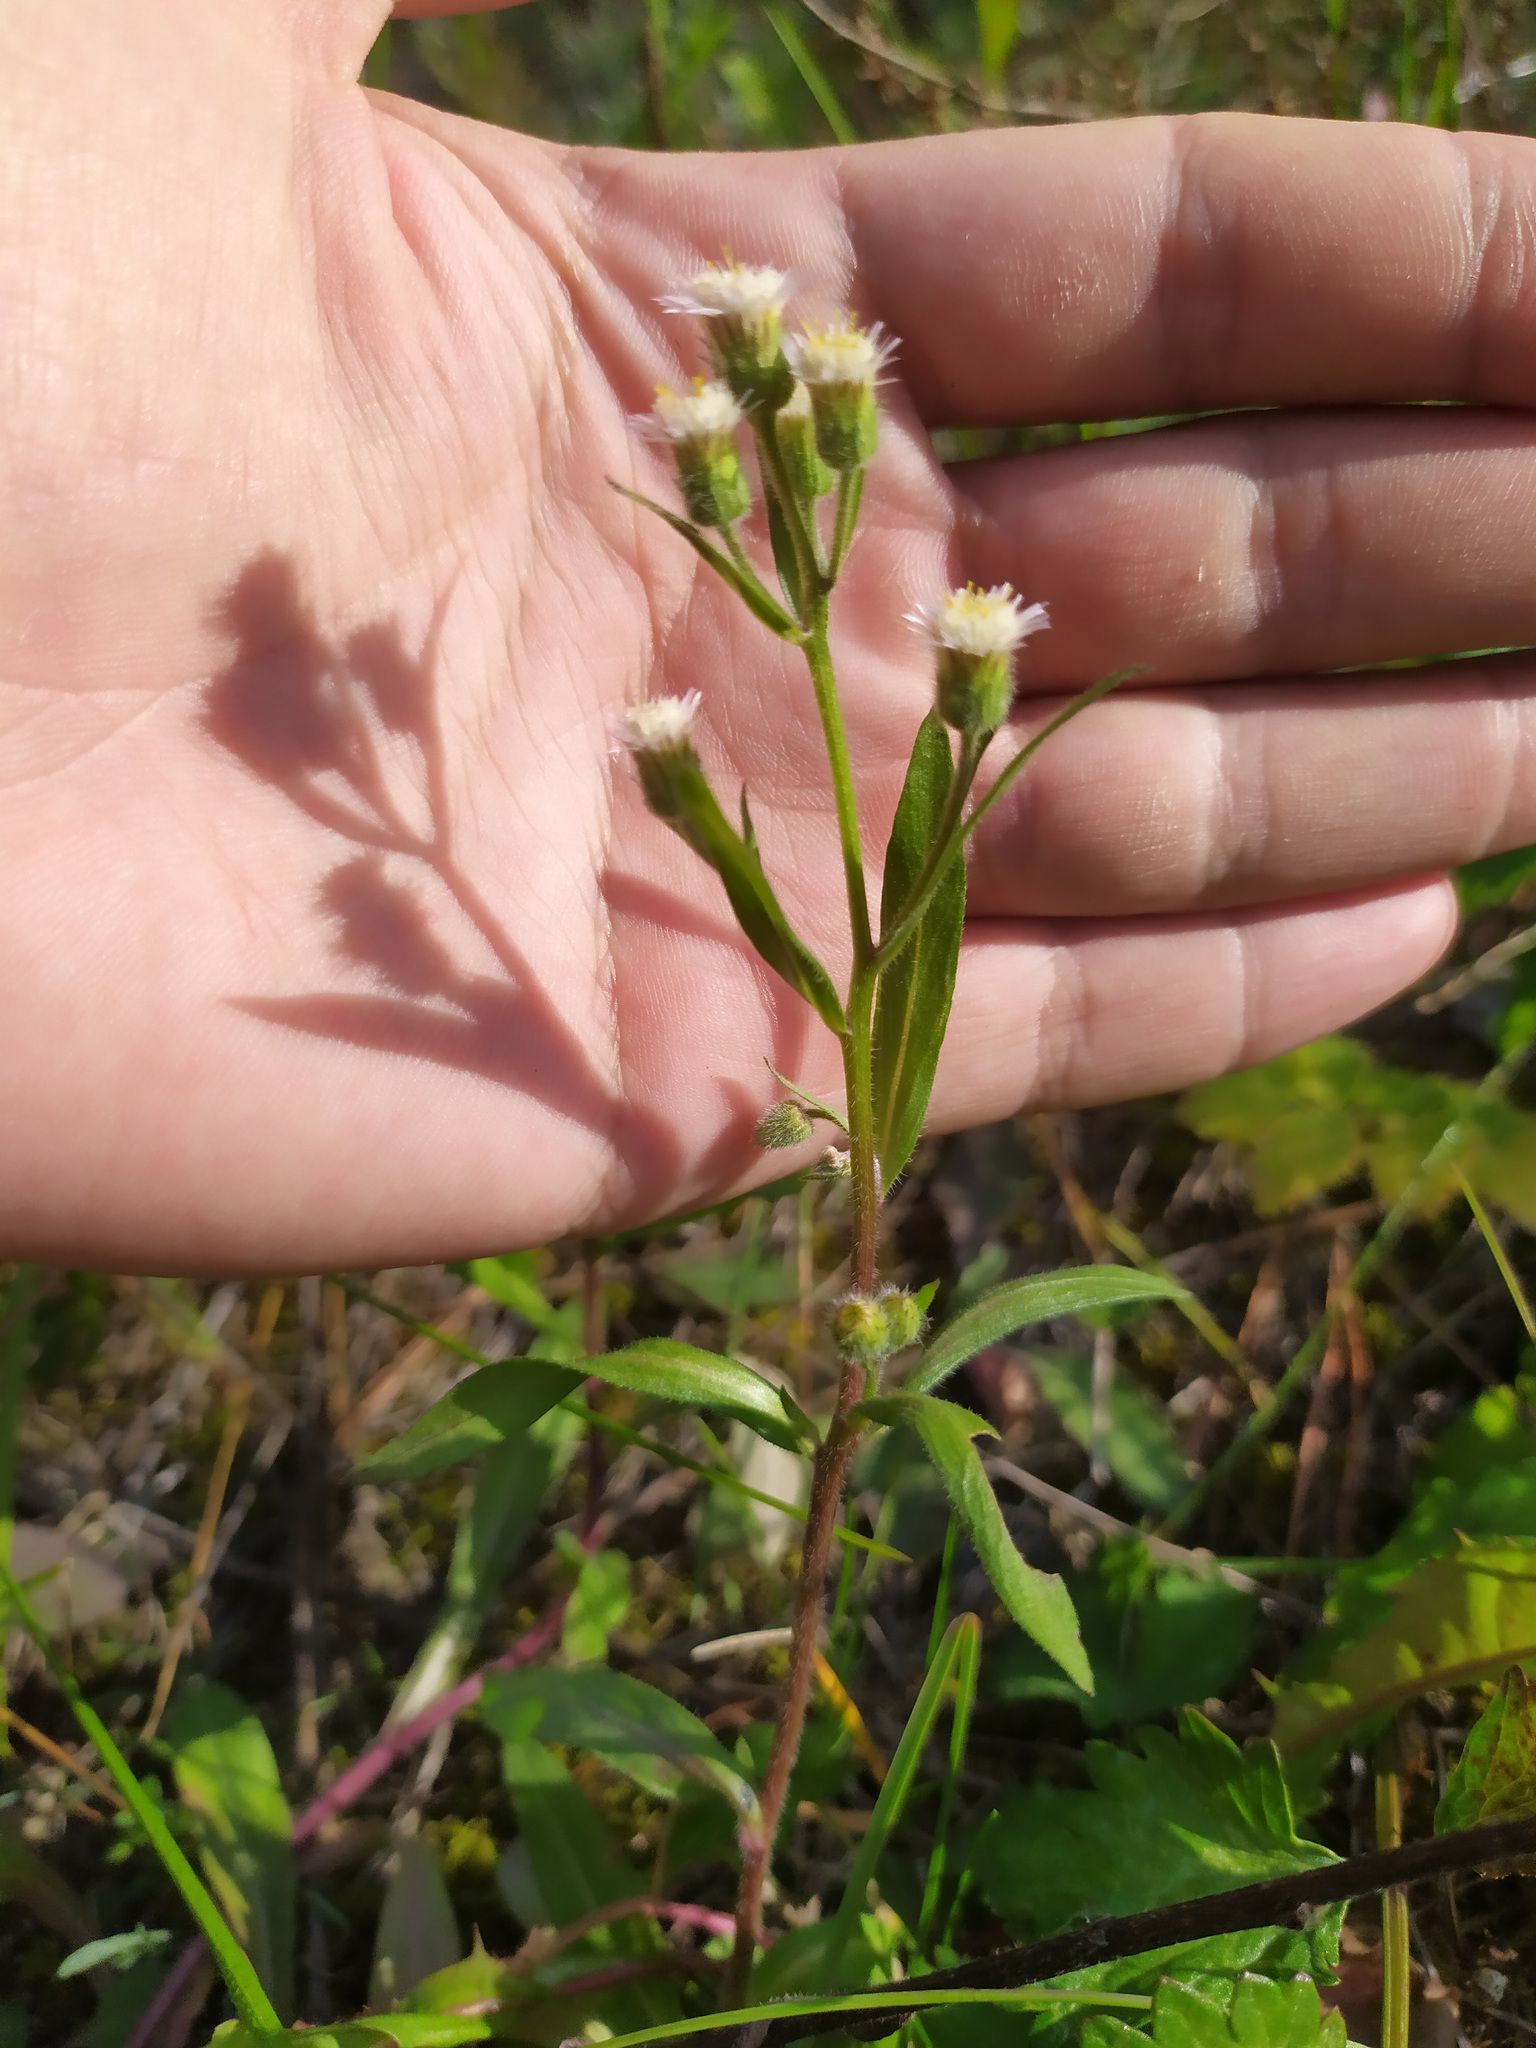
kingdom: Plantae
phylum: Tracheophyta
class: Magnoliopsida
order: Asterales
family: Asteraceae
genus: Erigeron
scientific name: Erigeron acris
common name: Blue fleabane
